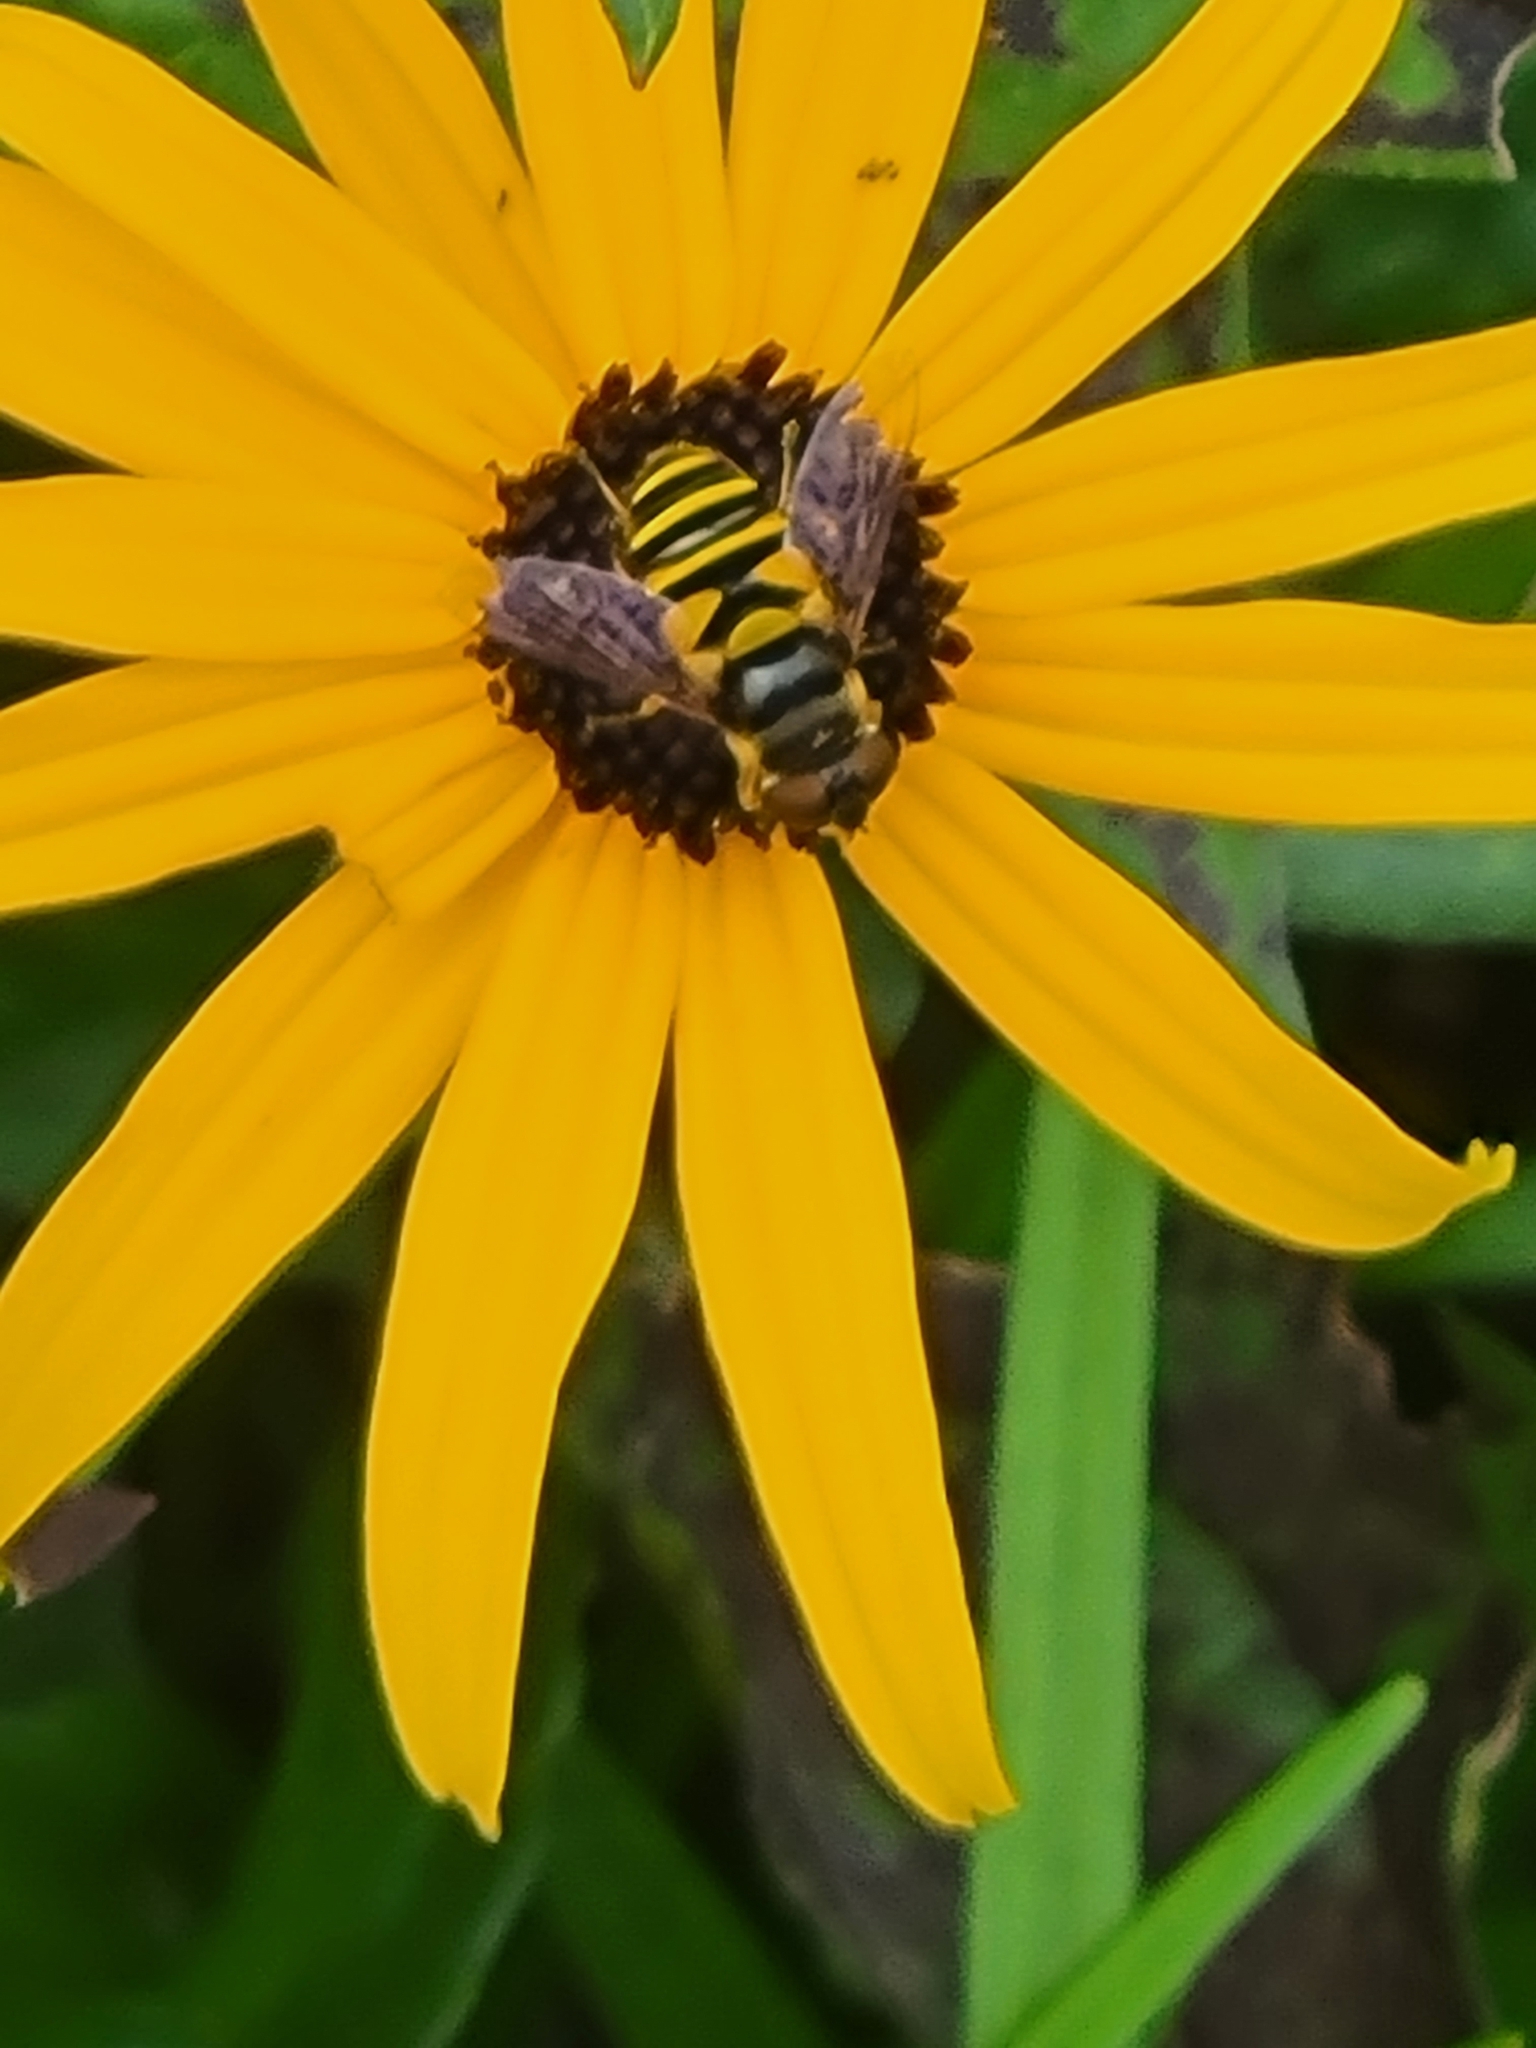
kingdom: Animalia
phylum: Arthropoda
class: Insecta
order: Diptera
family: Syrphidae
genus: Eristalis
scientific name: Eristalis transversa
